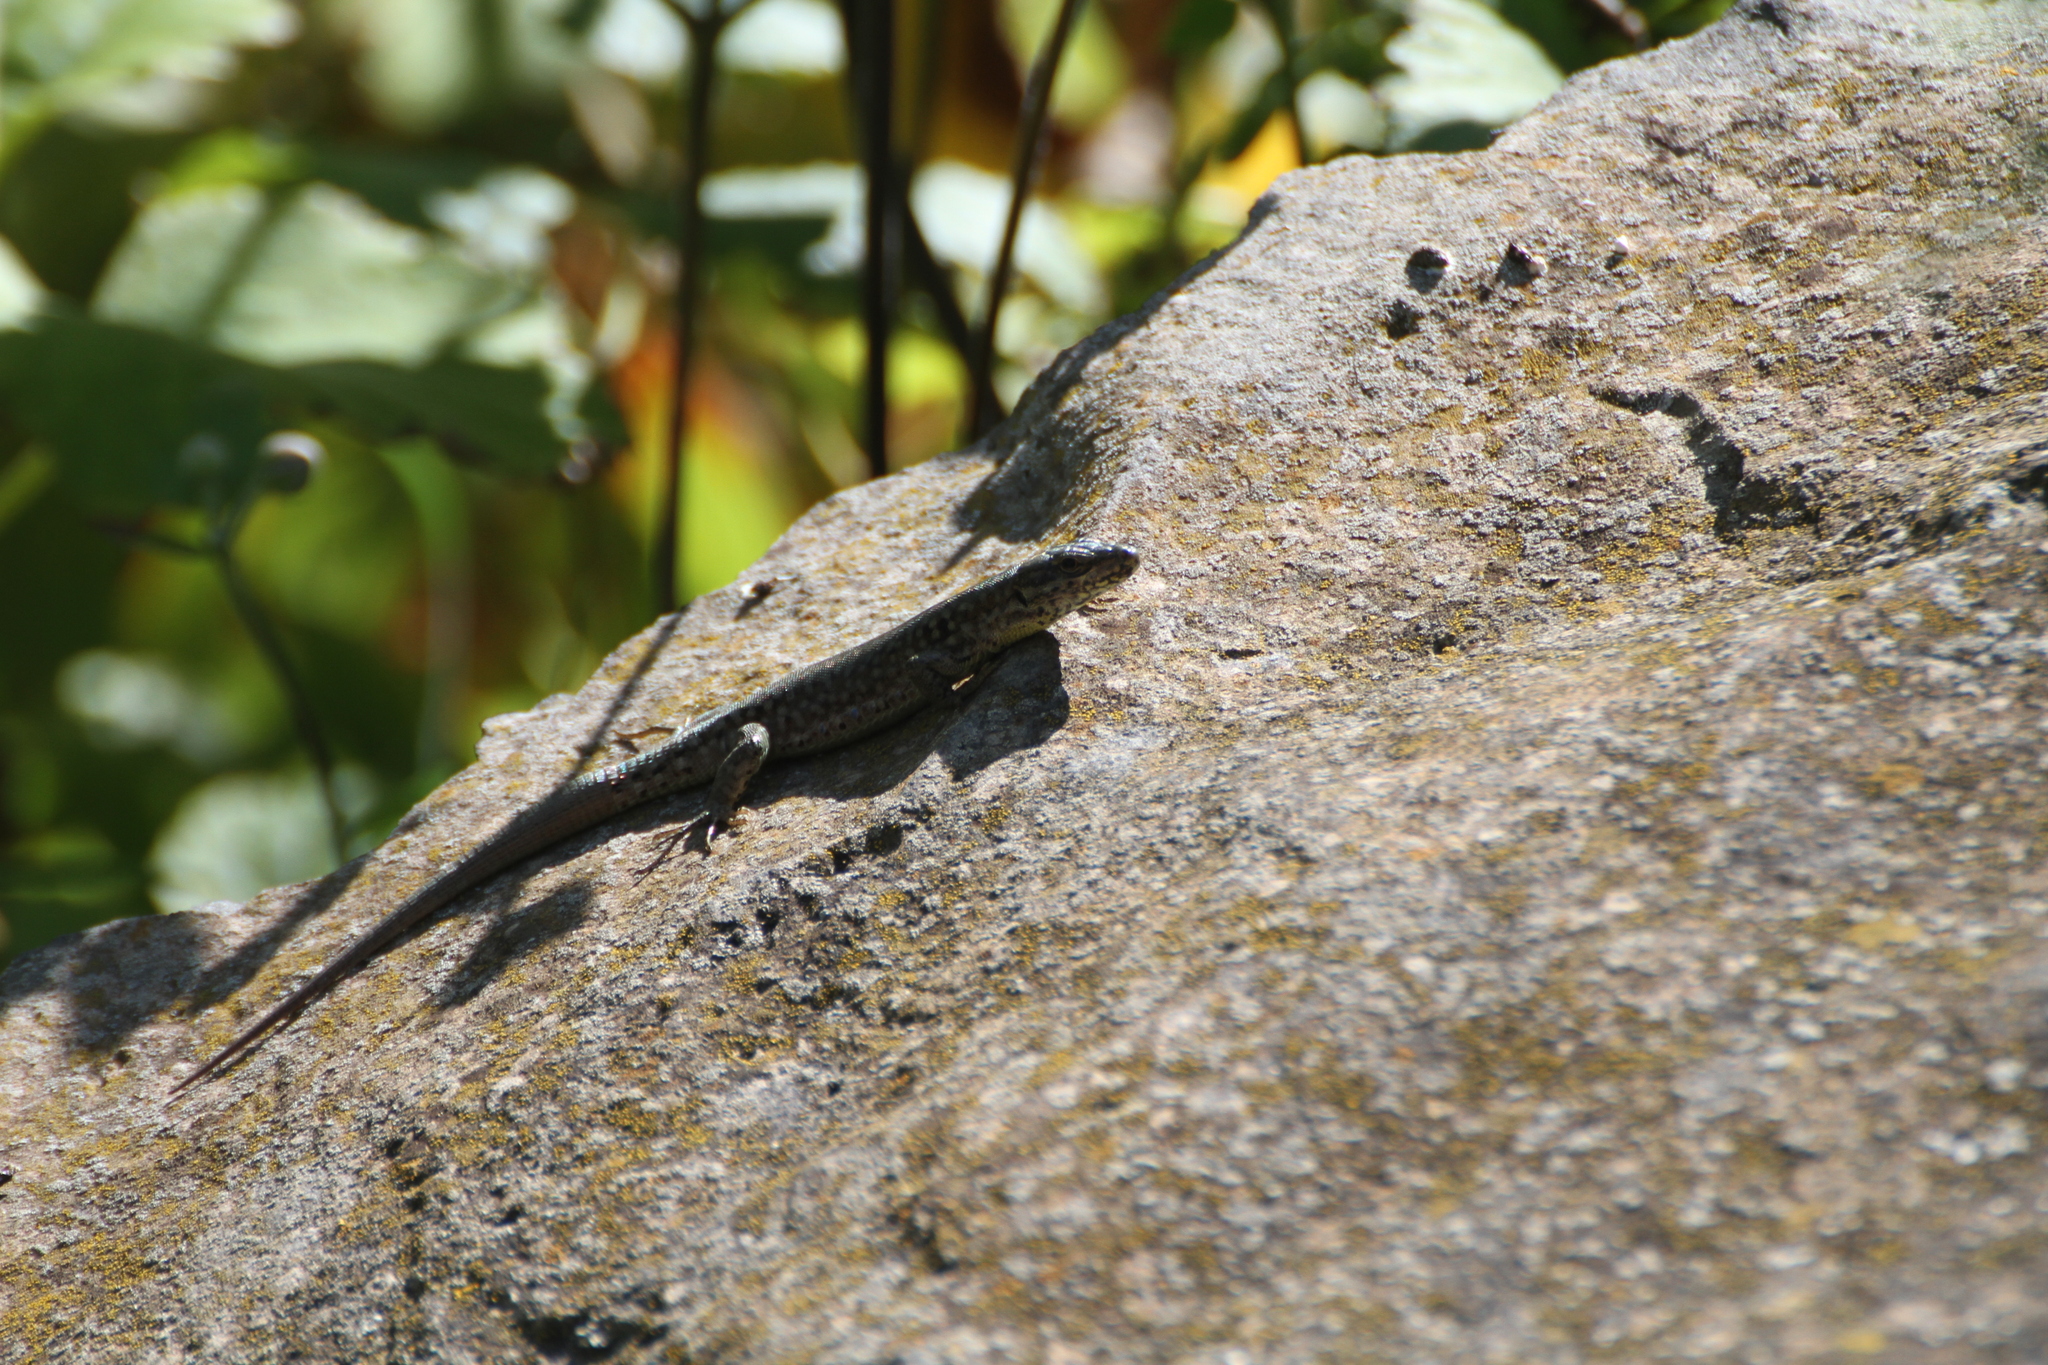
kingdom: Animalia
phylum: Chordata
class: Squamata
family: Lacertidae
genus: Podarcis
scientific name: Podarcis muralis
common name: Common wall lizard
